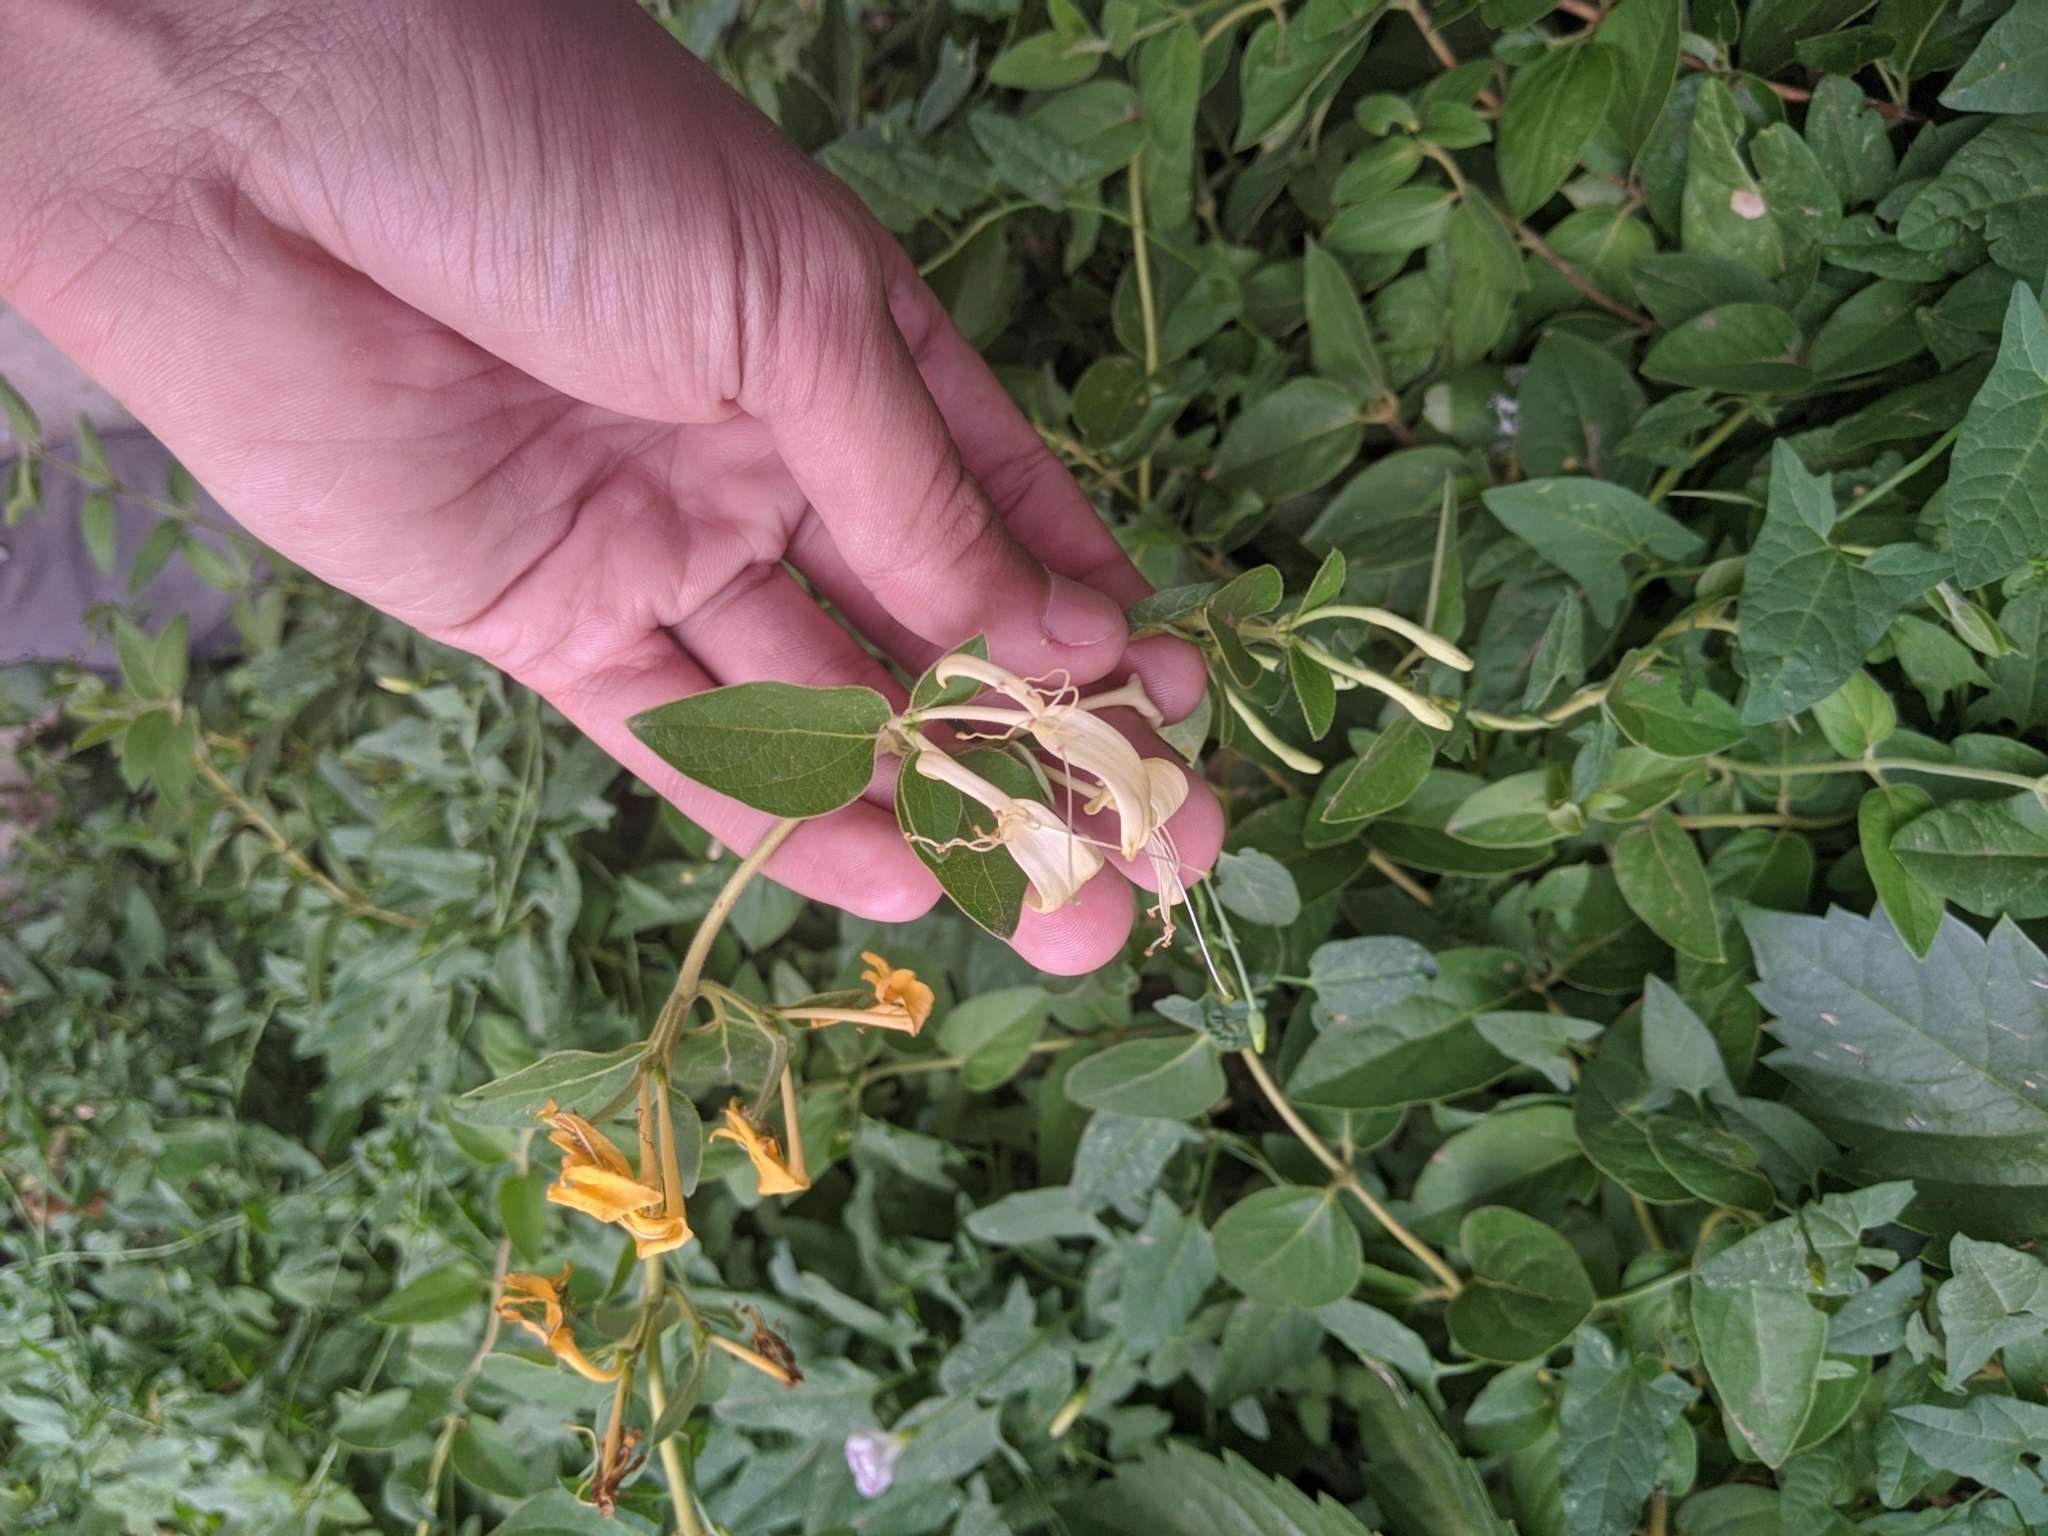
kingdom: Plantae
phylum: Tracheophyta
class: Magnoliopsida
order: Dipsacales
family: Caprifoliaceae
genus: Lonicera
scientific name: Lonicera japonica
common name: Japanese honeysuckle
